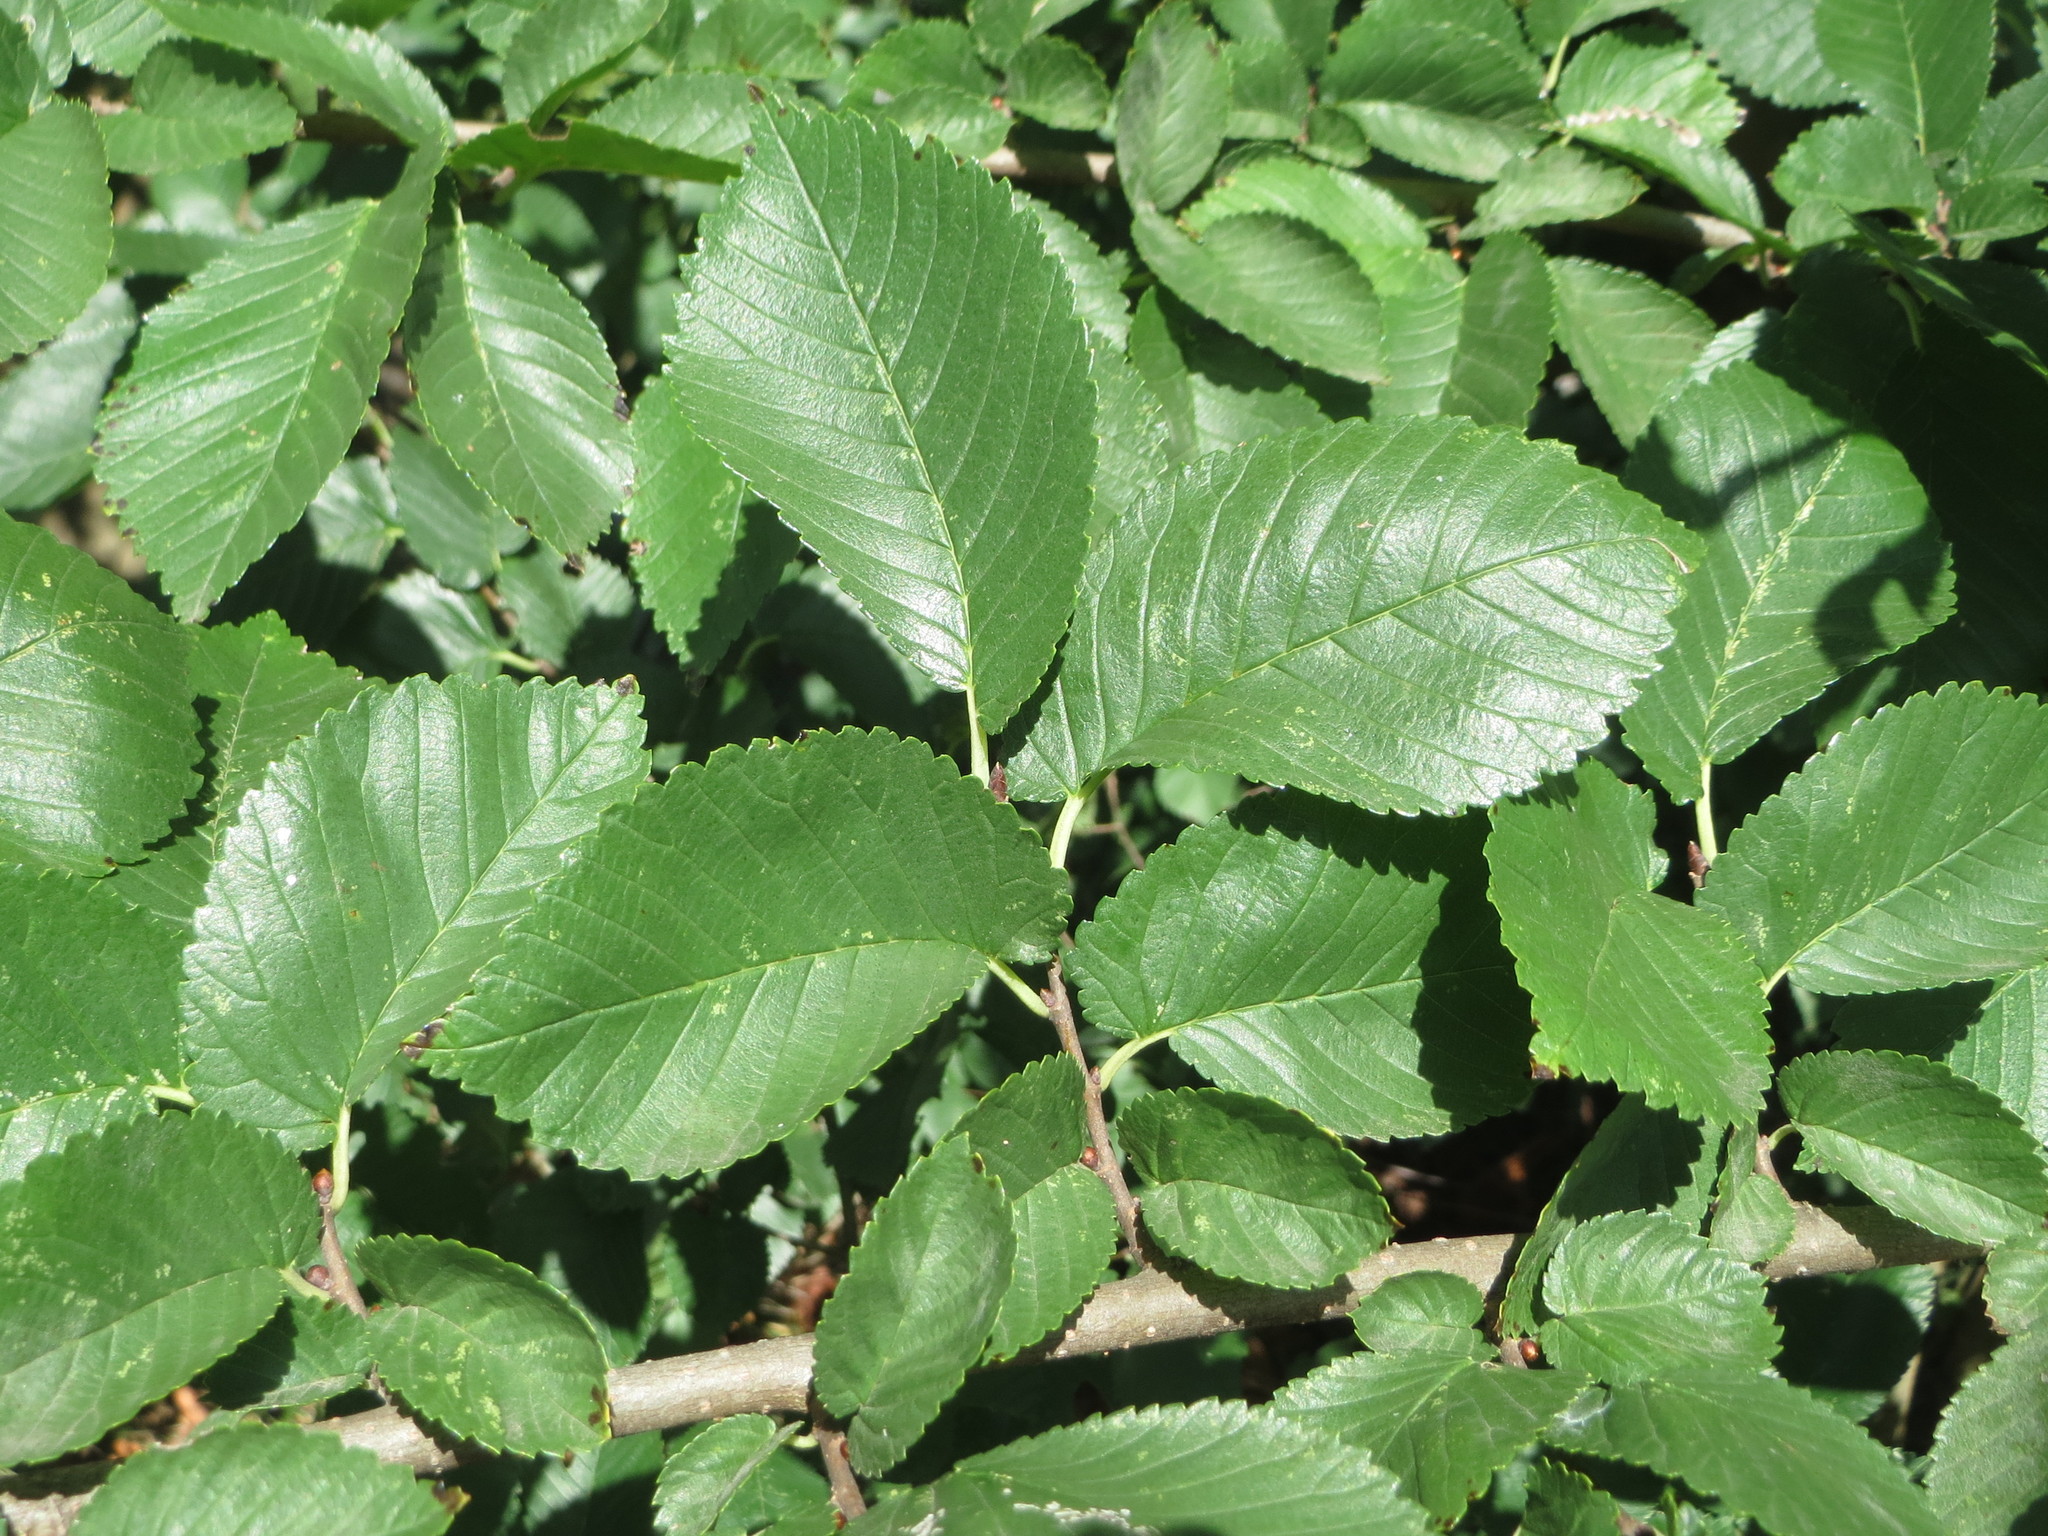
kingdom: Plantae
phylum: Tracheophyta
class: Magnoliopsida
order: Rosales
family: Ulmaceae
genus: Ulmus
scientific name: Ulmus minor
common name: Small-leaved elm
